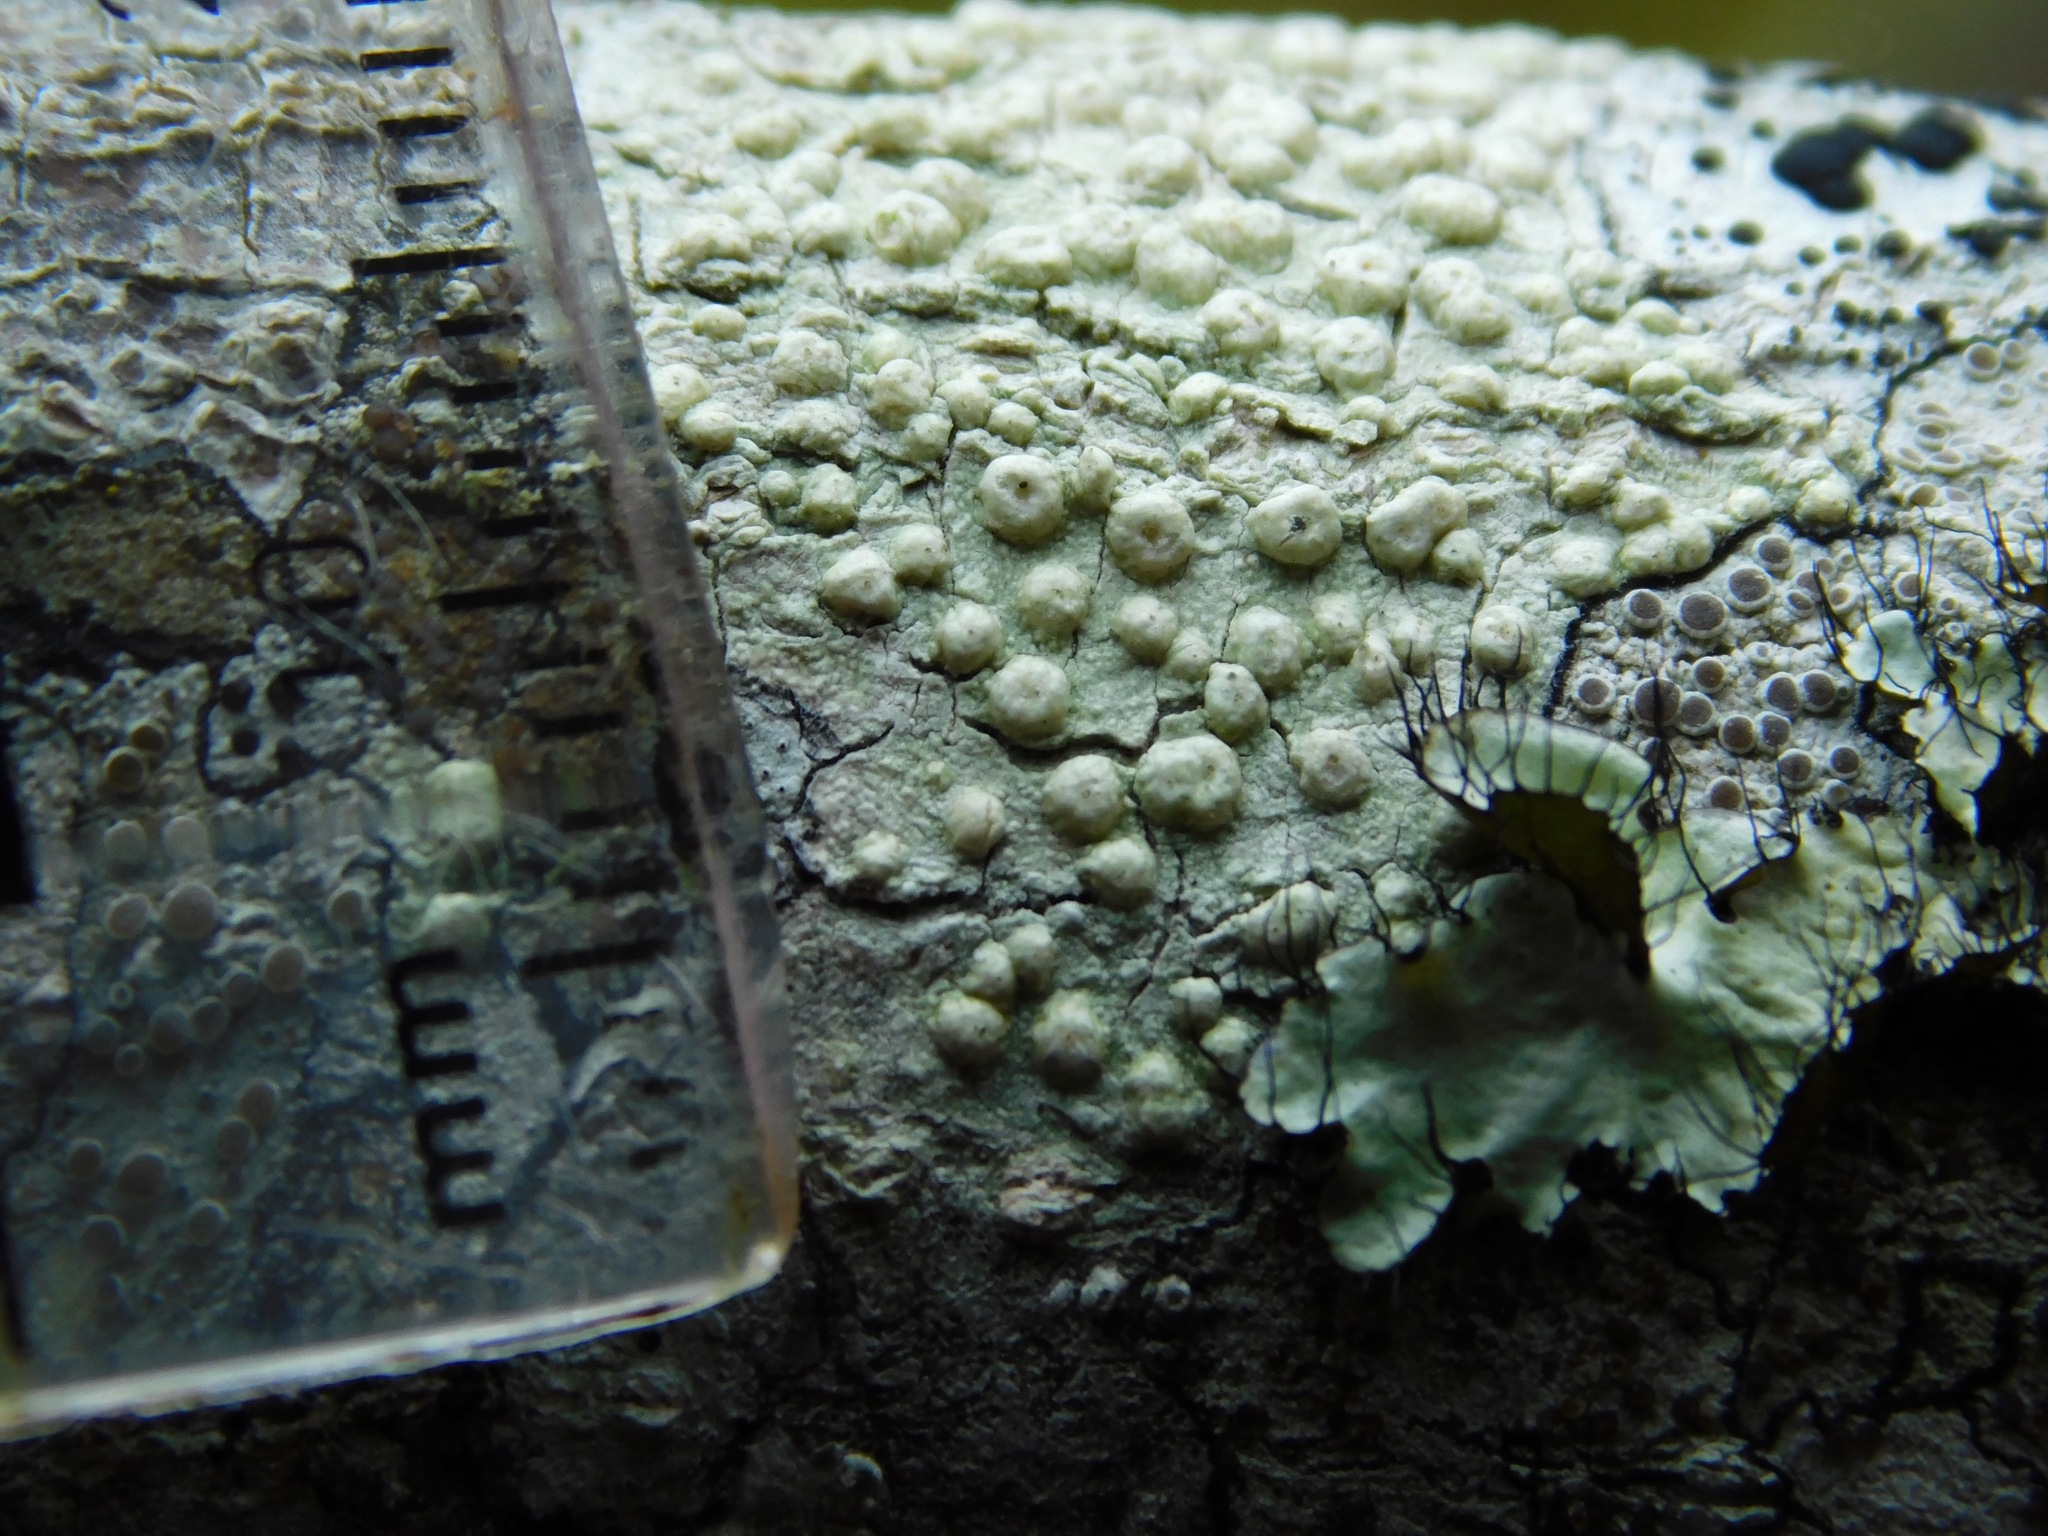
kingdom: Fungi
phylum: Ascomycota
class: Lecanoromycetes
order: Pertusariales
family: Pertusariaceae
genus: Pertusaria
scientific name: Pertusaria texana
